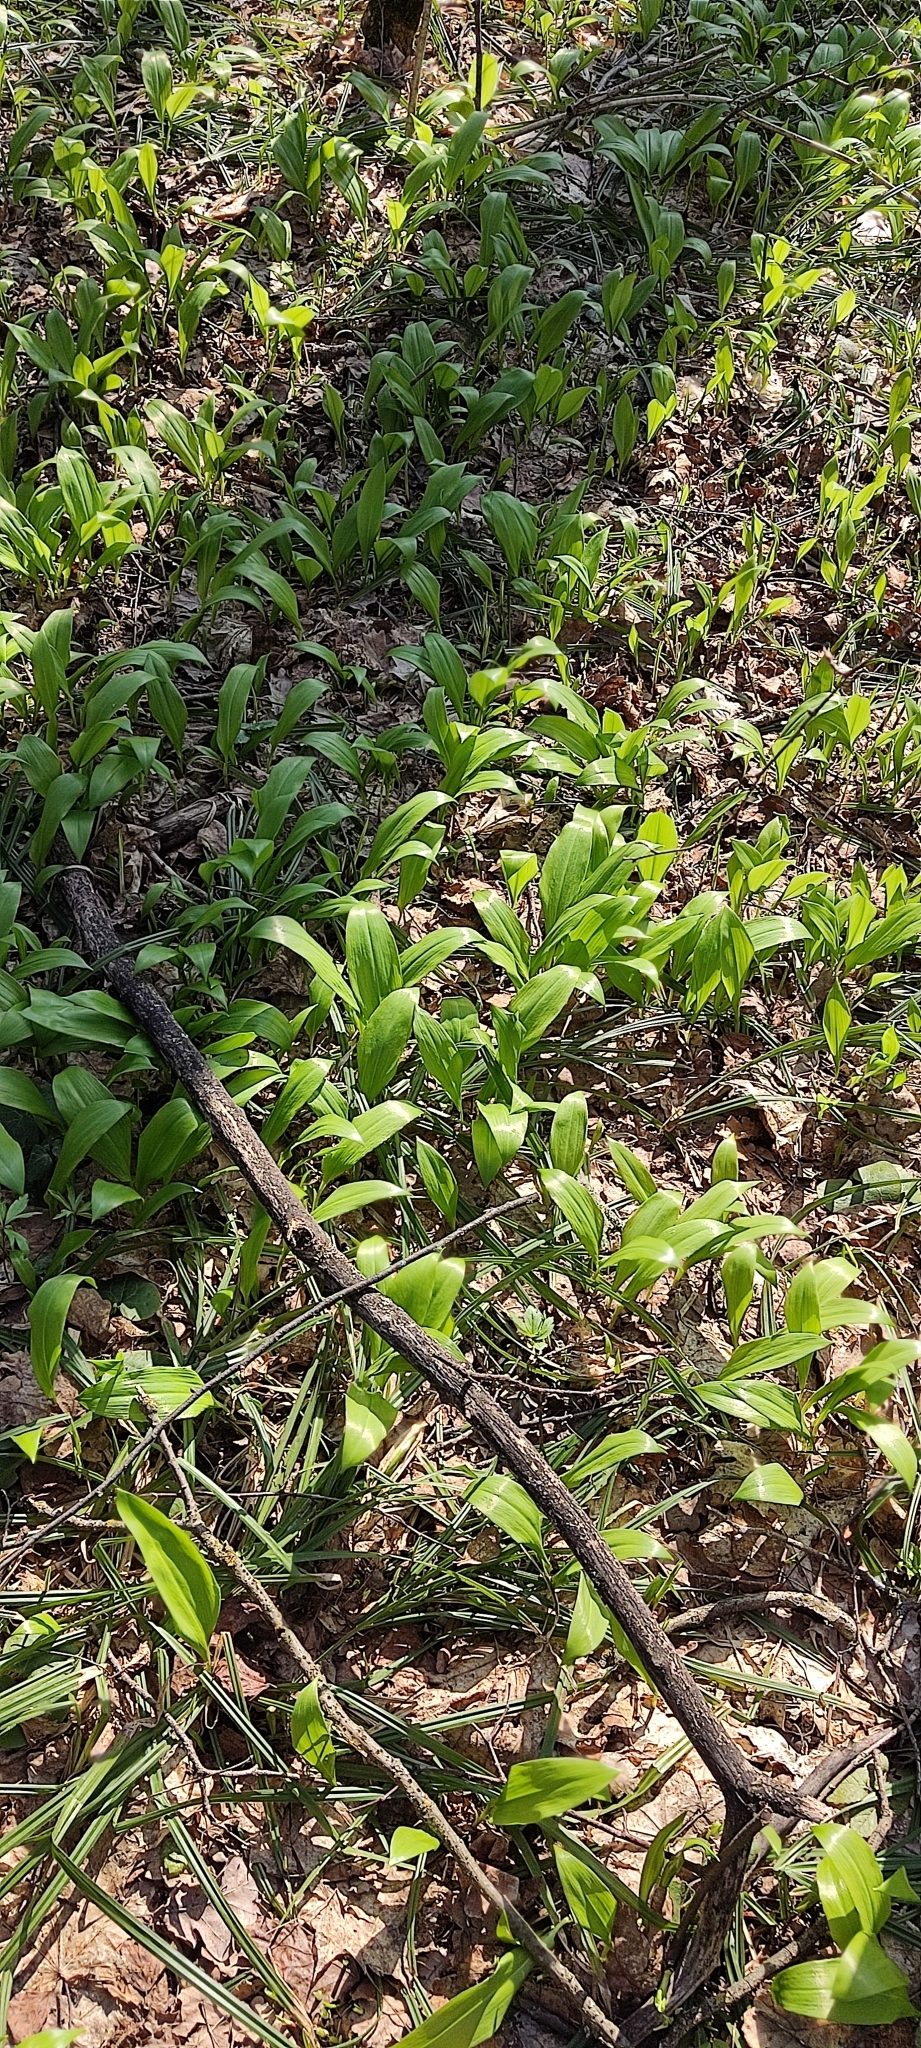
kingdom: Plantae
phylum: Tracheophyta
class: Liliopsida
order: Asparagales
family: Amaryllidaceae
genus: Allium
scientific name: Allium ursinum
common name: Ramsons
